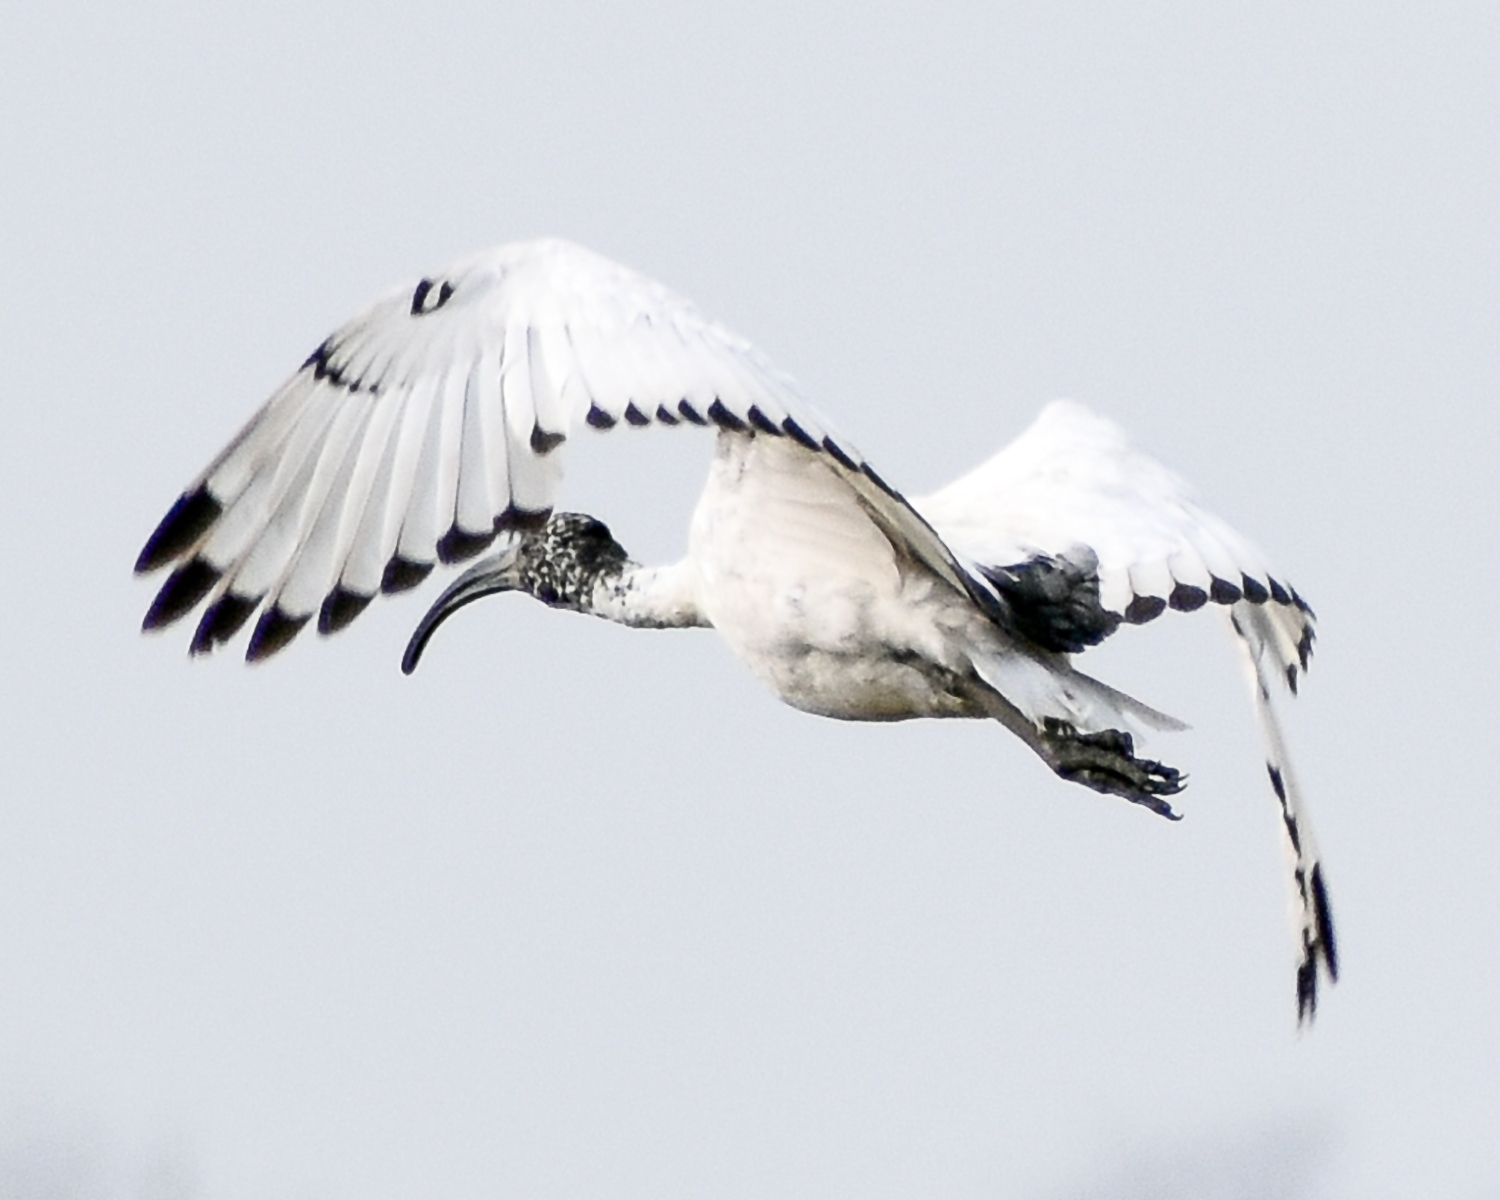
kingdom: Animalia
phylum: Chordata
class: Aves
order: Pelecaniformes
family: Threskiornithidae
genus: Threskiornis
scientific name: Threskiornis aethiopicus
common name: Sacred ibis
